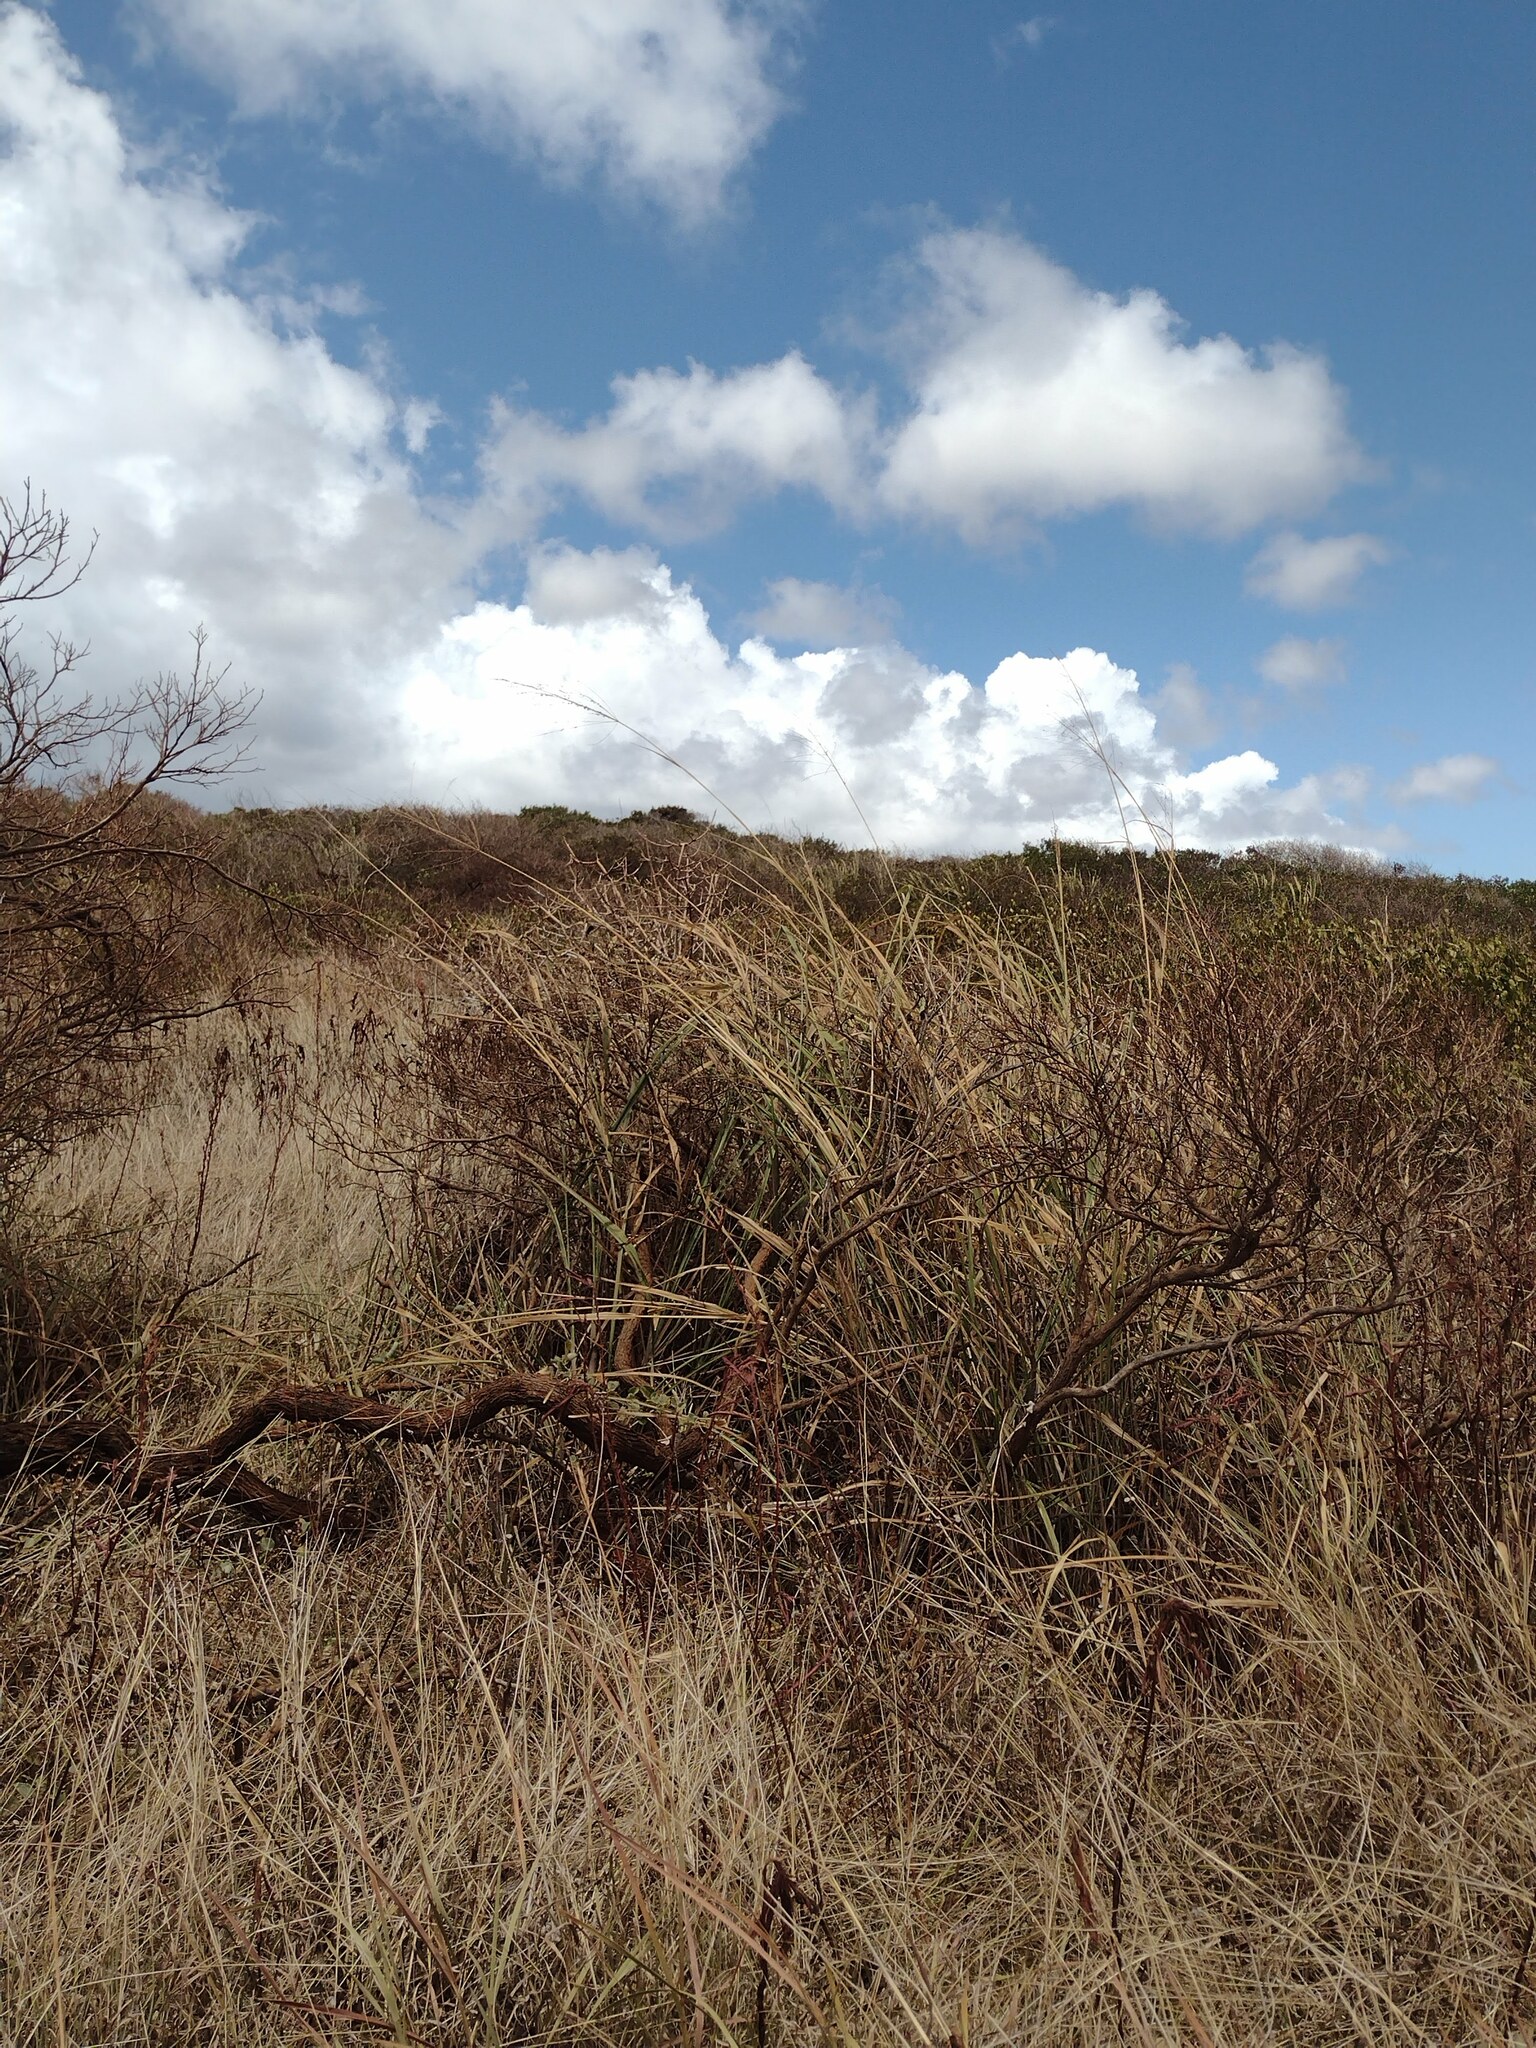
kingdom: Plantae
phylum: Tracheophyta
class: Liliopsida
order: Poales
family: Poaceae
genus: Megathyrsus
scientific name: Megathyrsus maximus
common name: Guineagrass
